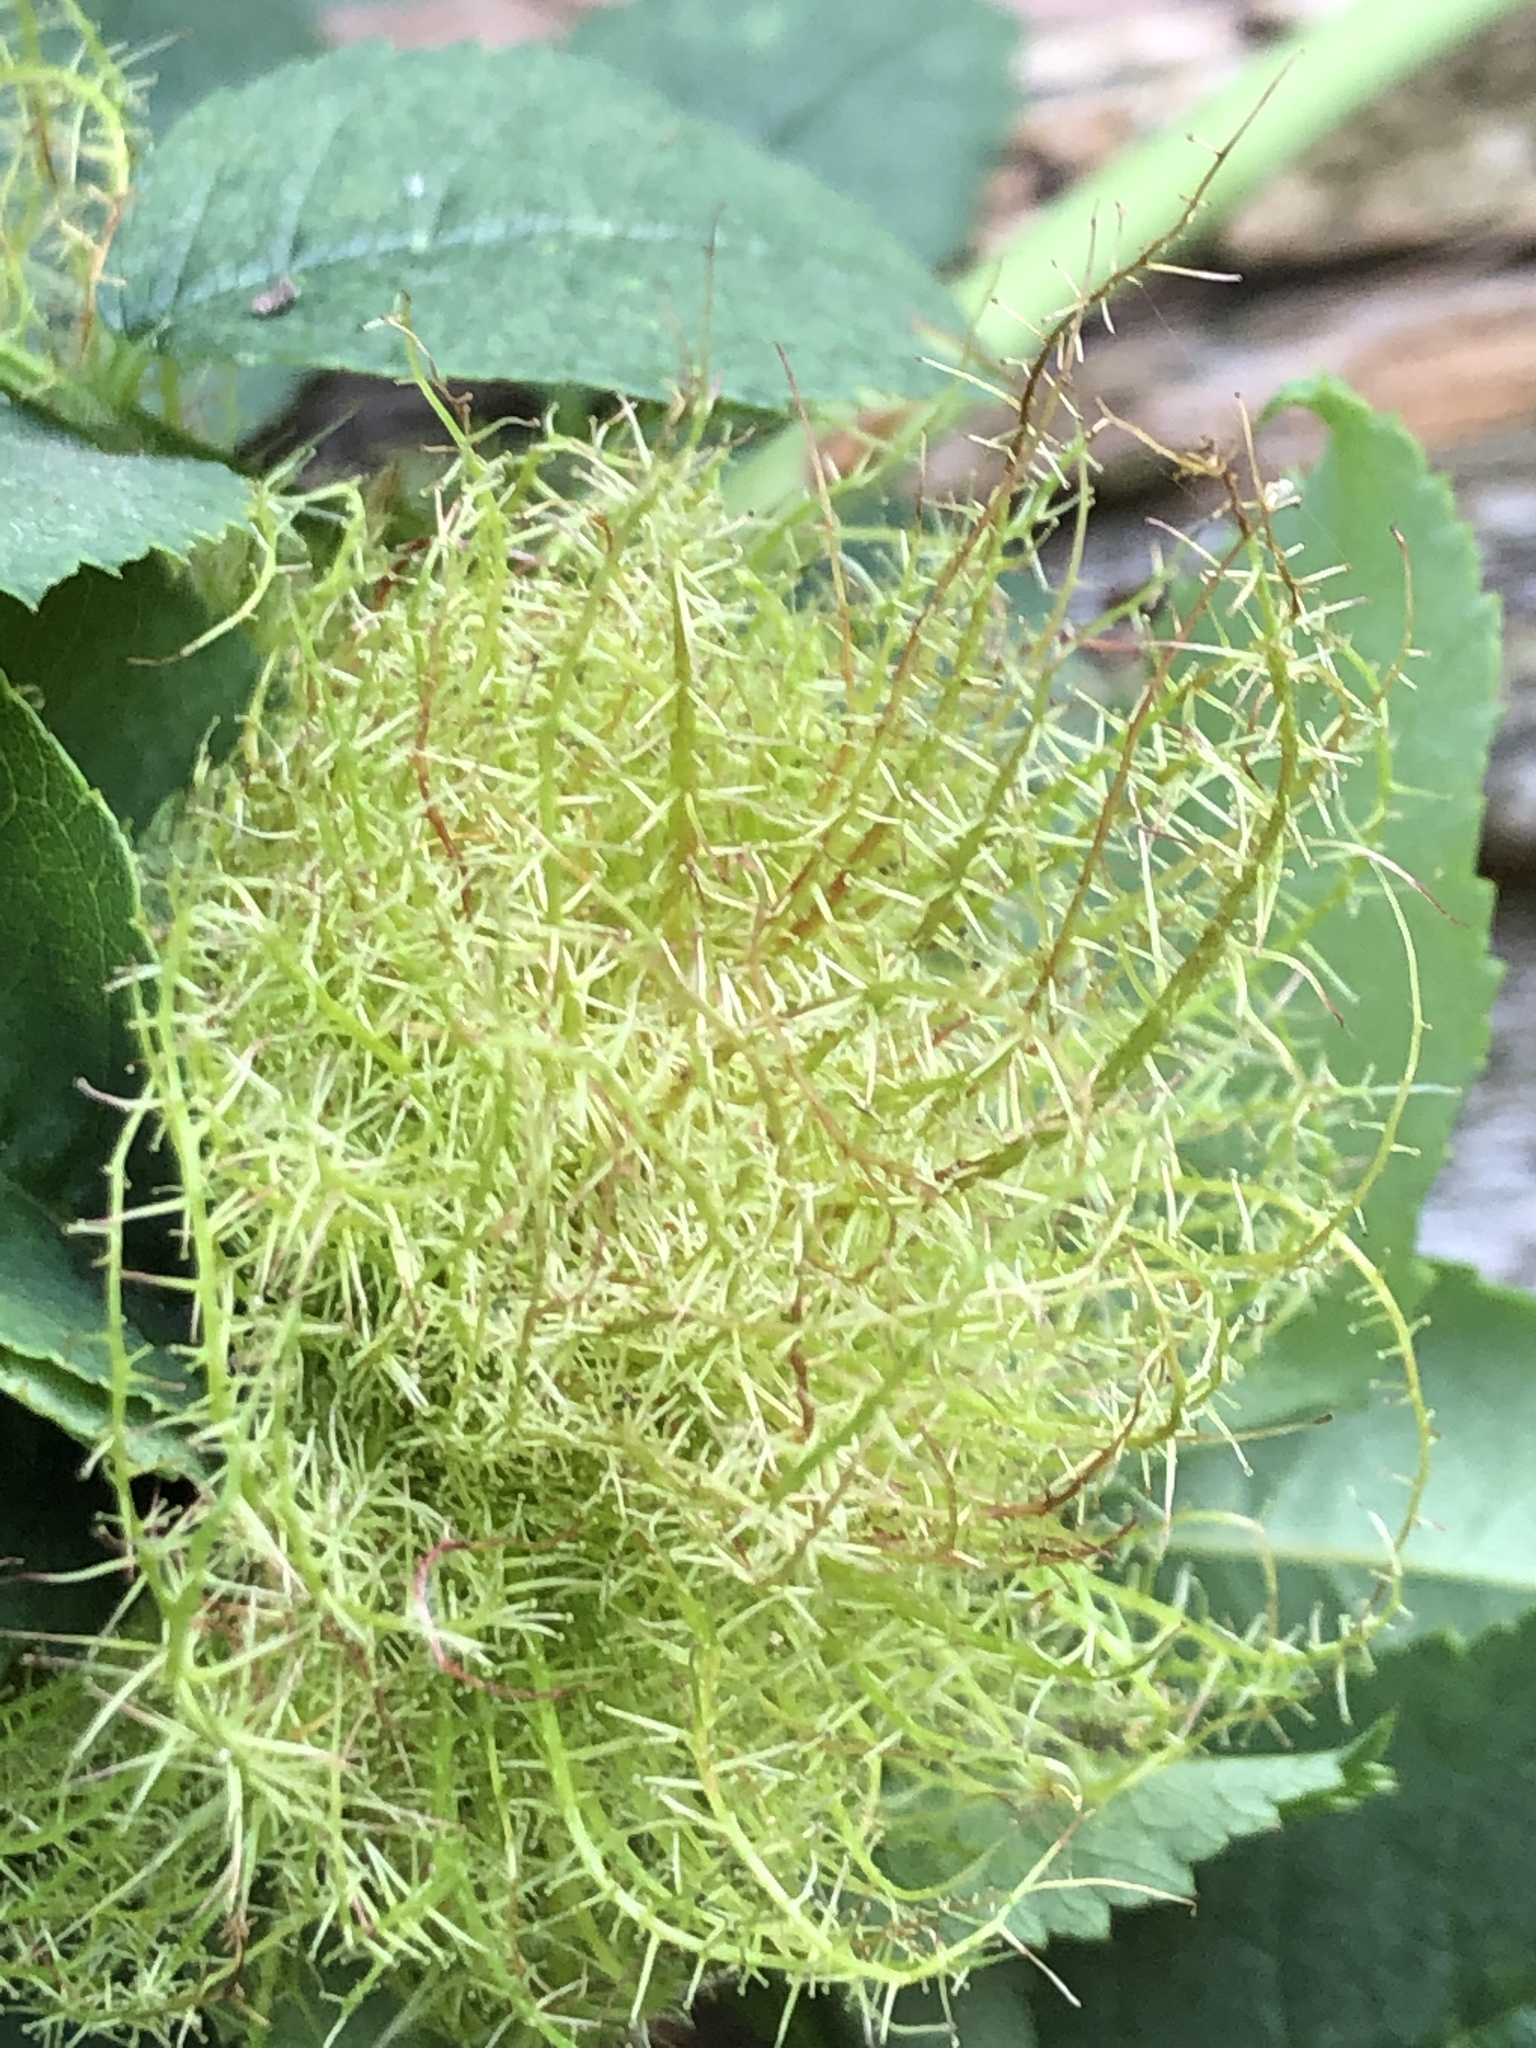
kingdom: Animalia
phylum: Arthropoda
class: Insecta
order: Hymenoptera
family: Cynipidae
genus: Diplolepis
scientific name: Diplolepis rosae
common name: Bedeguar gall
